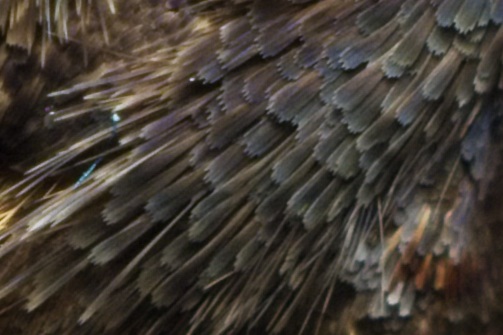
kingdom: Animalia
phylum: Arthropoda
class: Insecta
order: Lepidoptera
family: Erebidae
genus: Rhapsa
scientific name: Rhapsa scotosialis
